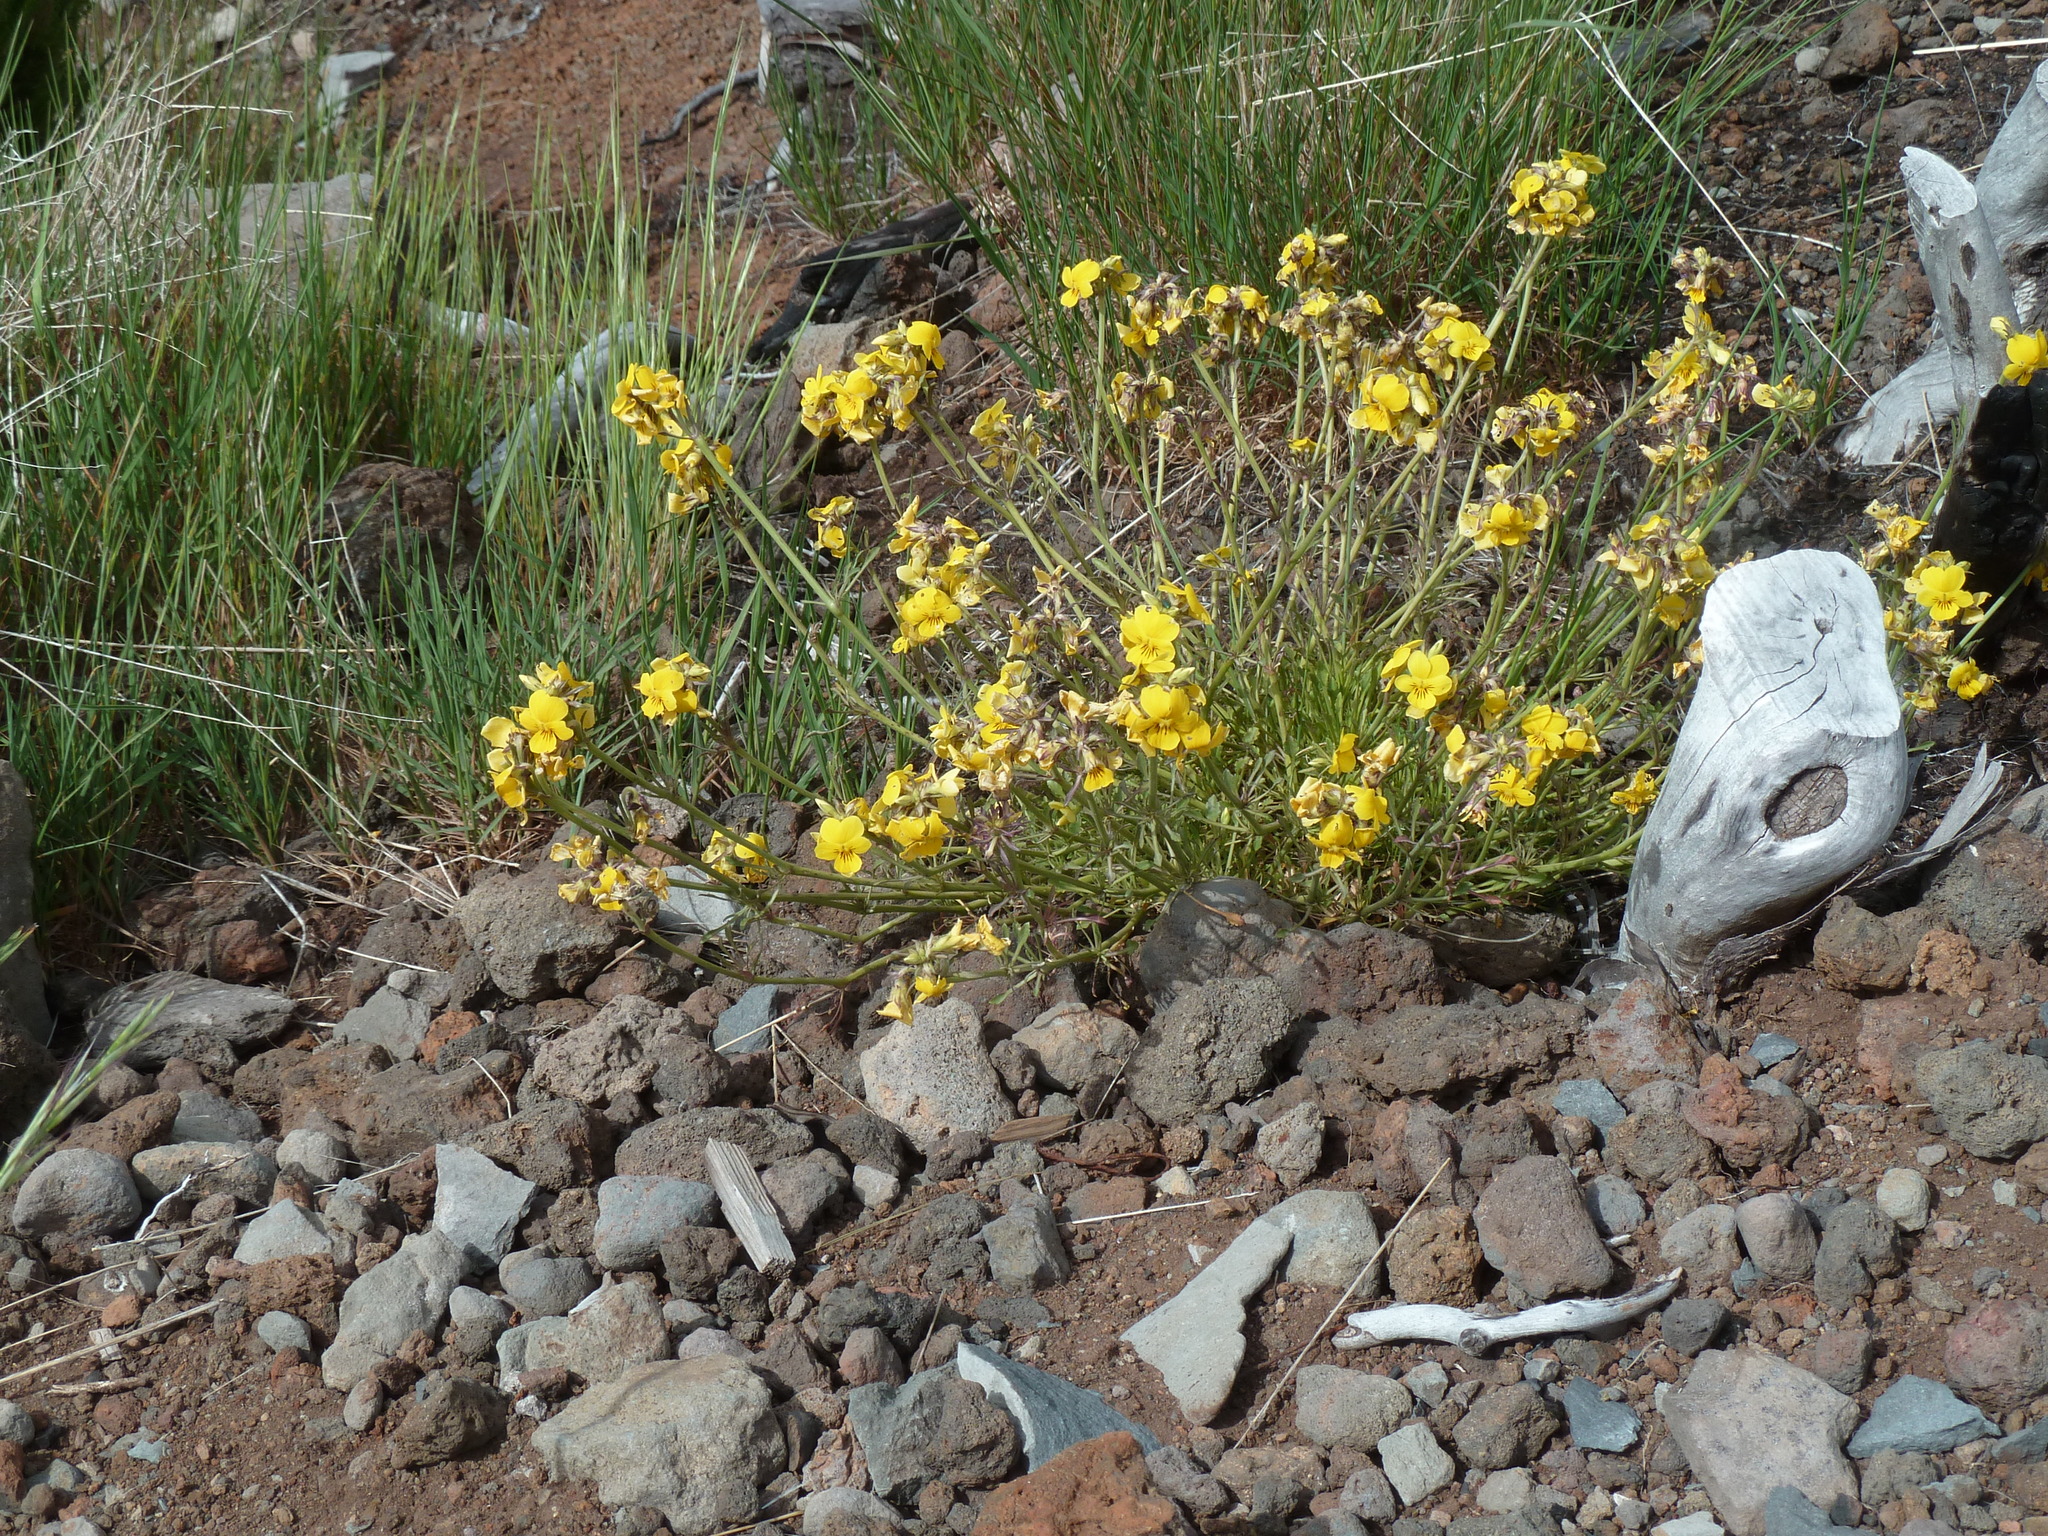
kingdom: Plantae
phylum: Tracheophyta
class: Magnoliopsida
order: Malpighiales
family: Violaceae
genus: Viola
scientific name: Viola paradoxa
